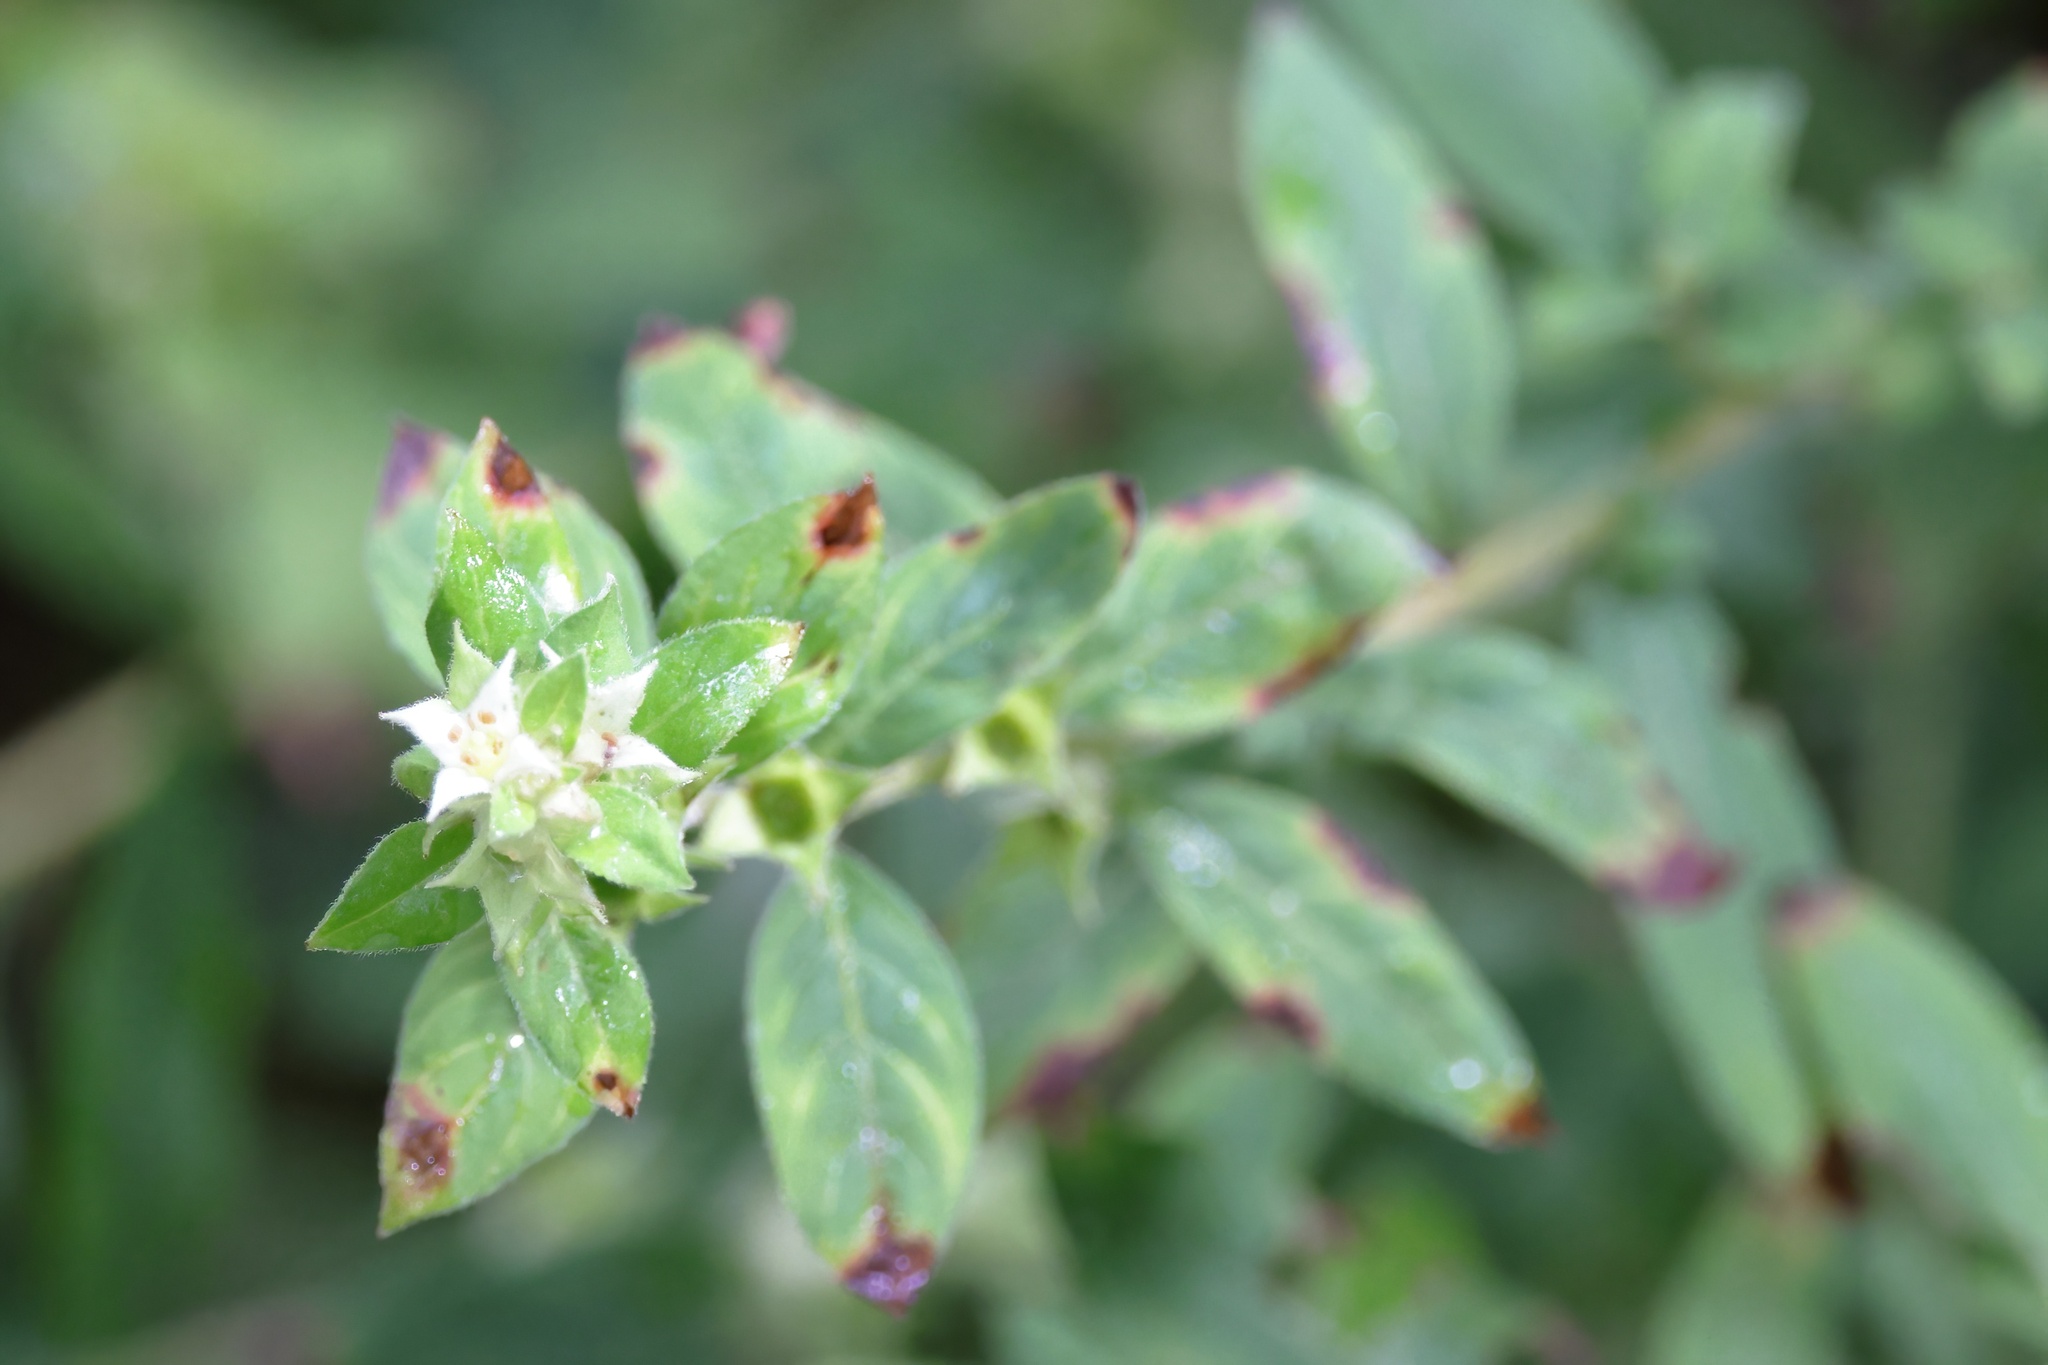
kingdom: Plantae
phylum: Tracheophyta
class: Magnoliopsida
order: Myrtales
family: Onagraceae
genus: Ludwigia
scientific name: Ludwigia pilosa
